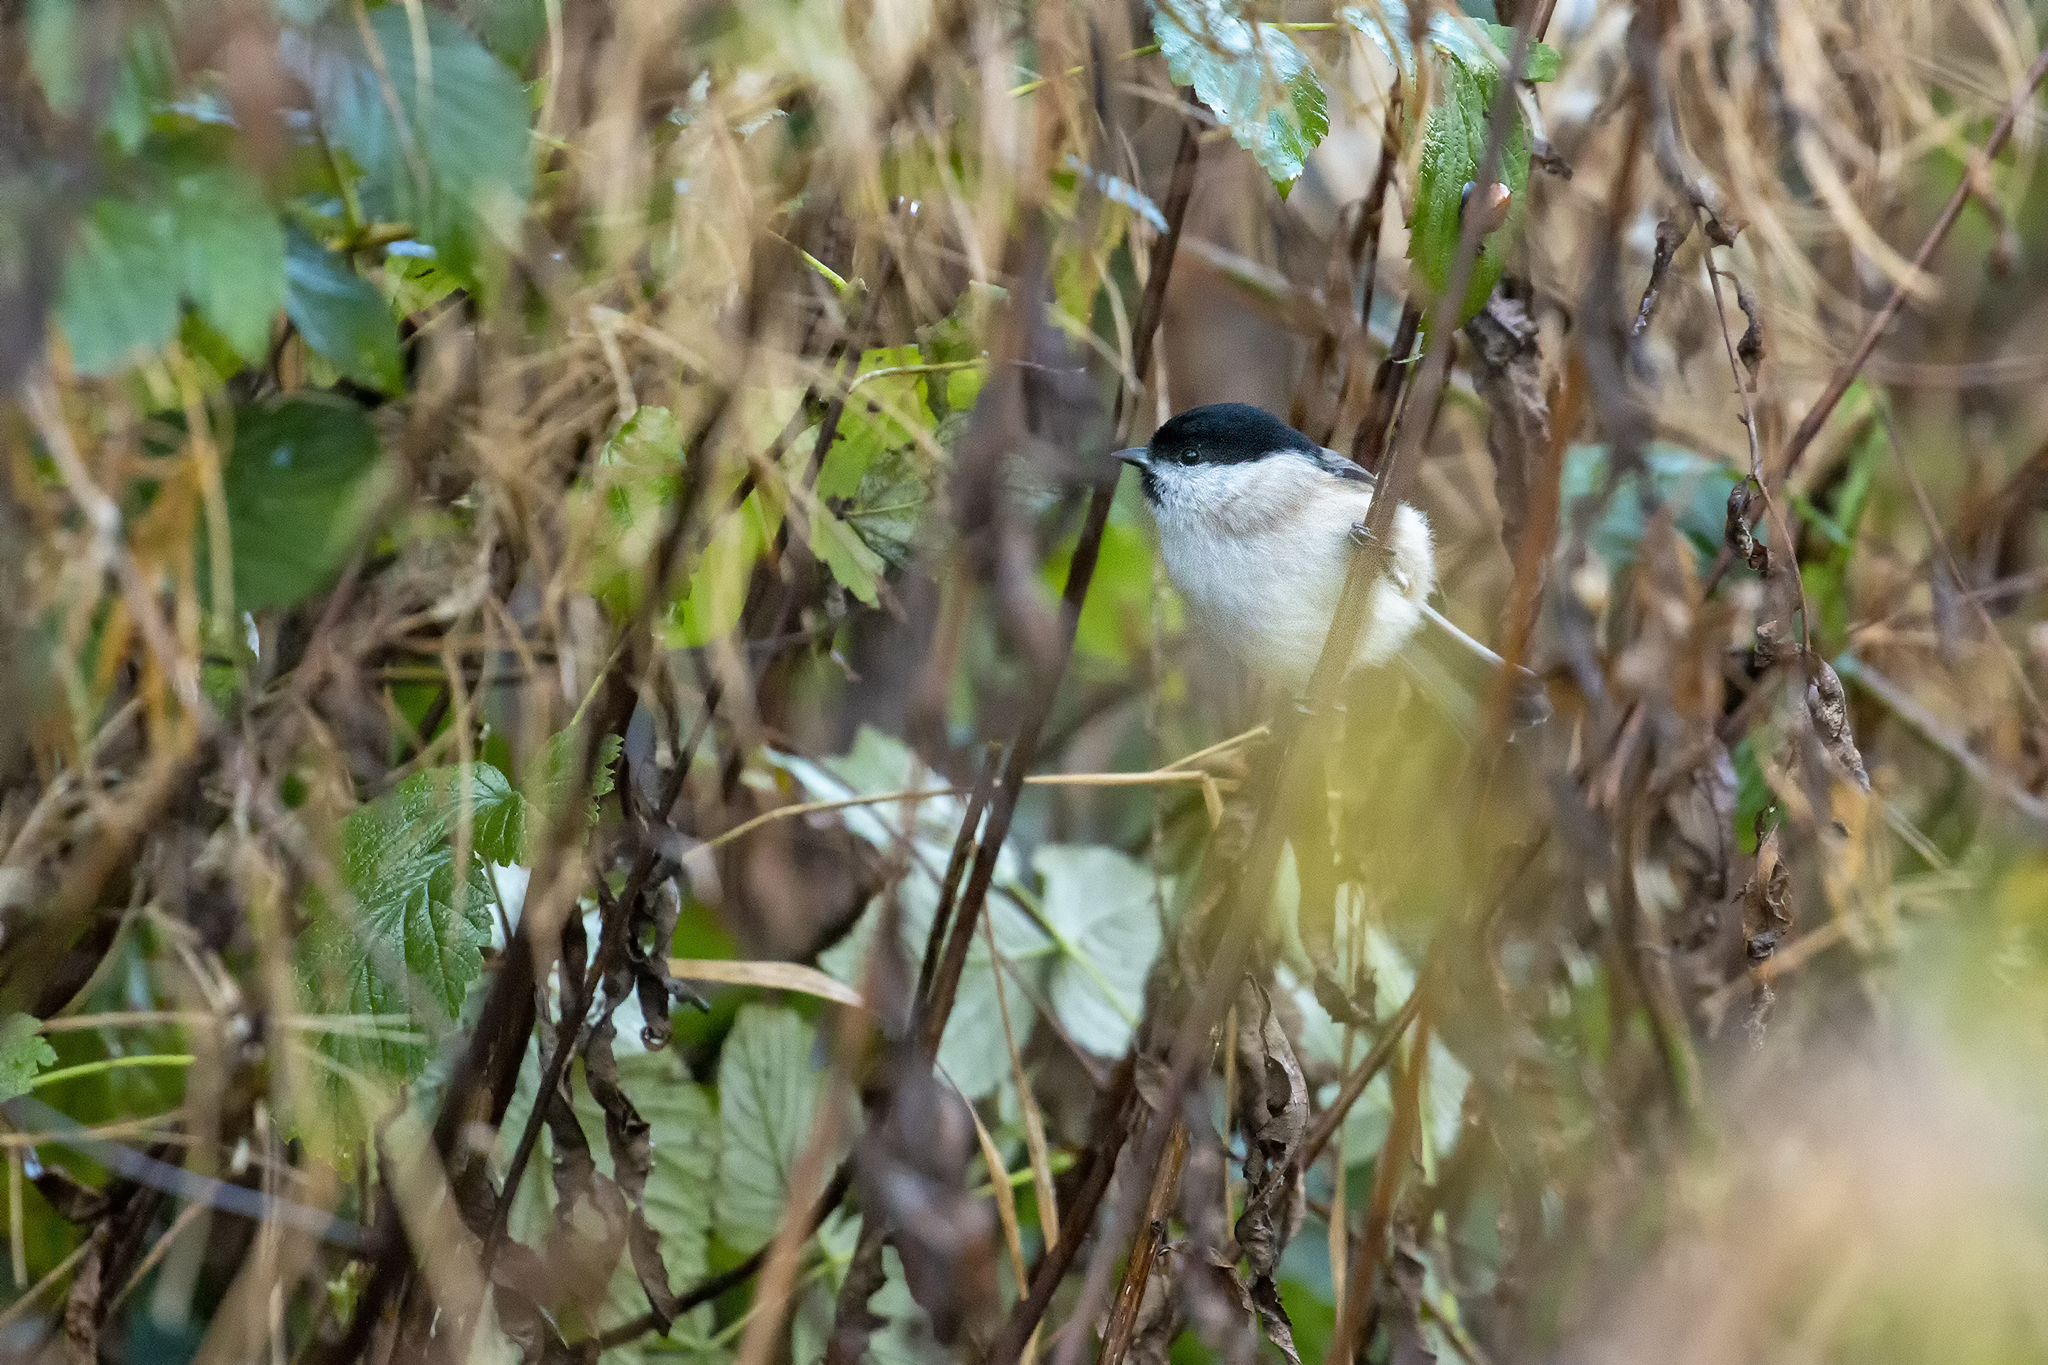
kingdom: Animalia
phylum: Chordata
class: Aves
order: Passeriformes
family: Paridae
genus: Poecile
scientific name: Poecile palustris
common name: Marsh tit
